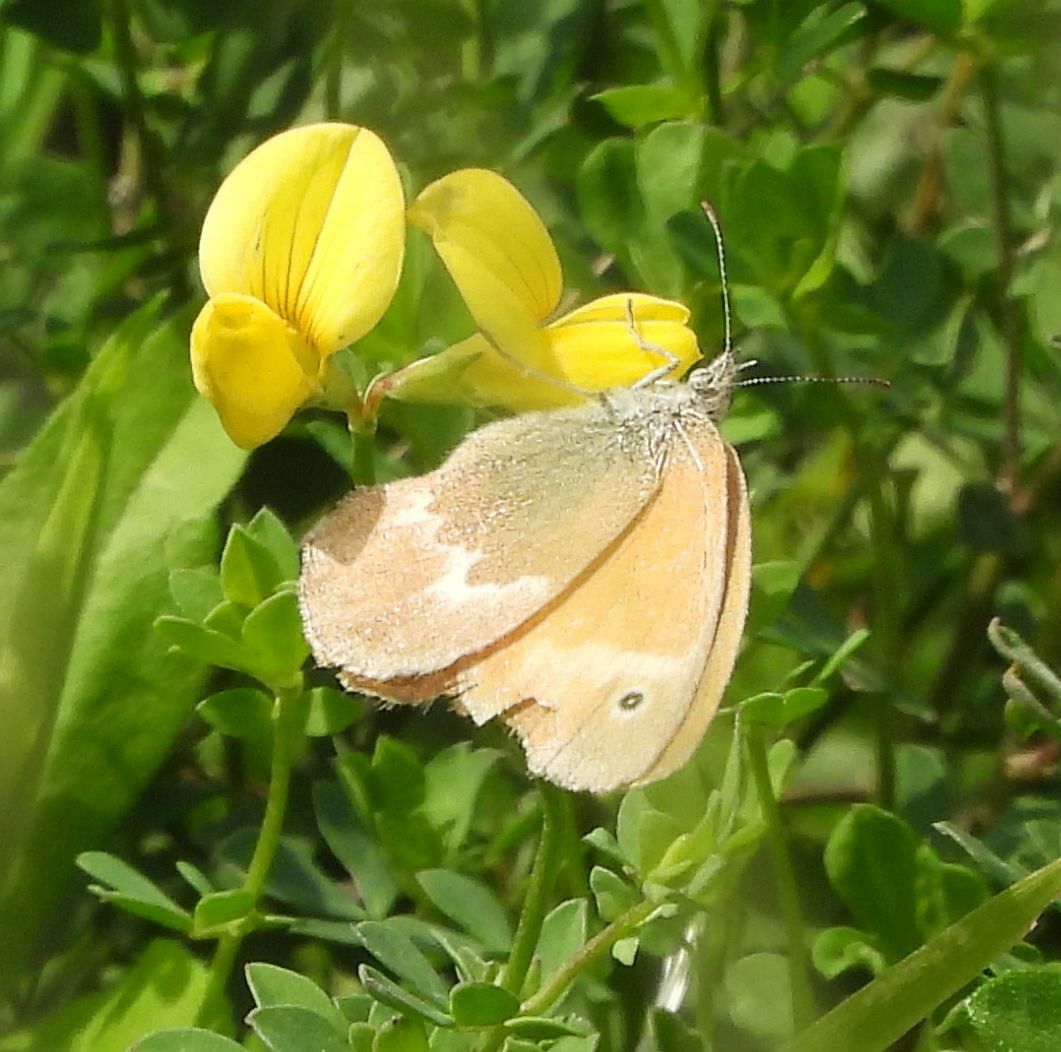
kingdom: Animalia
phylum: Arthropoda
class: Insecta
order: Lepidoptera
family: Nymphalidae
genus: Coenonympha
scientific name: Coenonympha california
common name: Common ringlet
